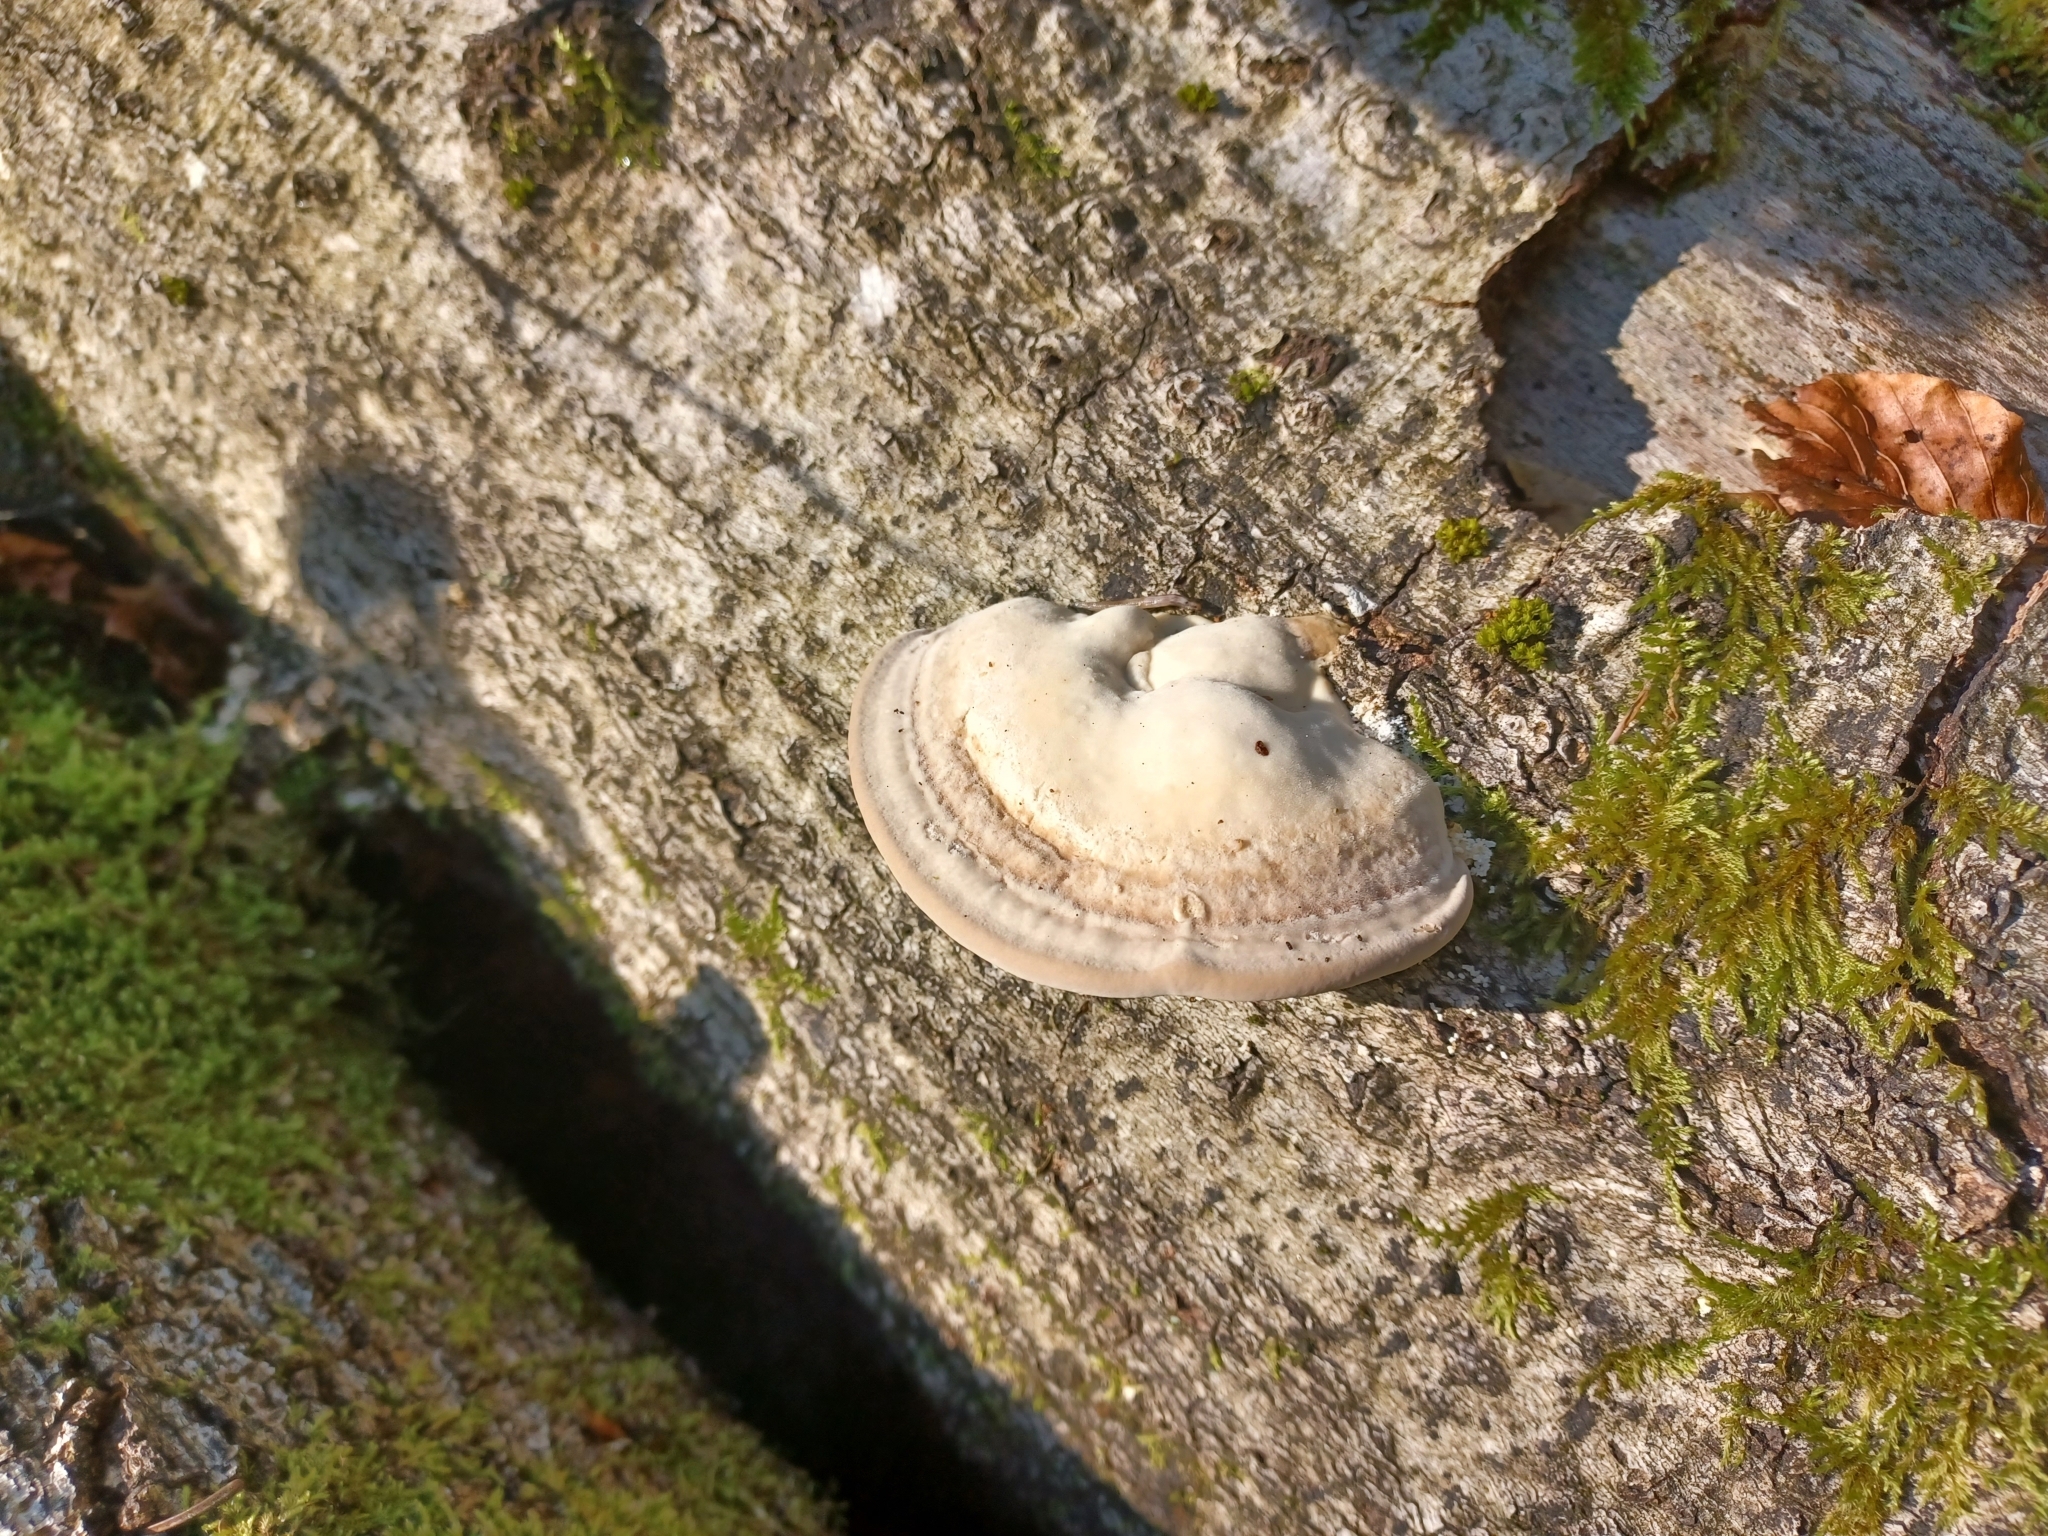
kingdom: Fungi
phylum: Basidiomycota
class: Agaricomycetes
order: Polyporales
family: Polyporaceae
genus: Trametes
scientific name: Trametes gibbosa
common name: Lumpy bracket
